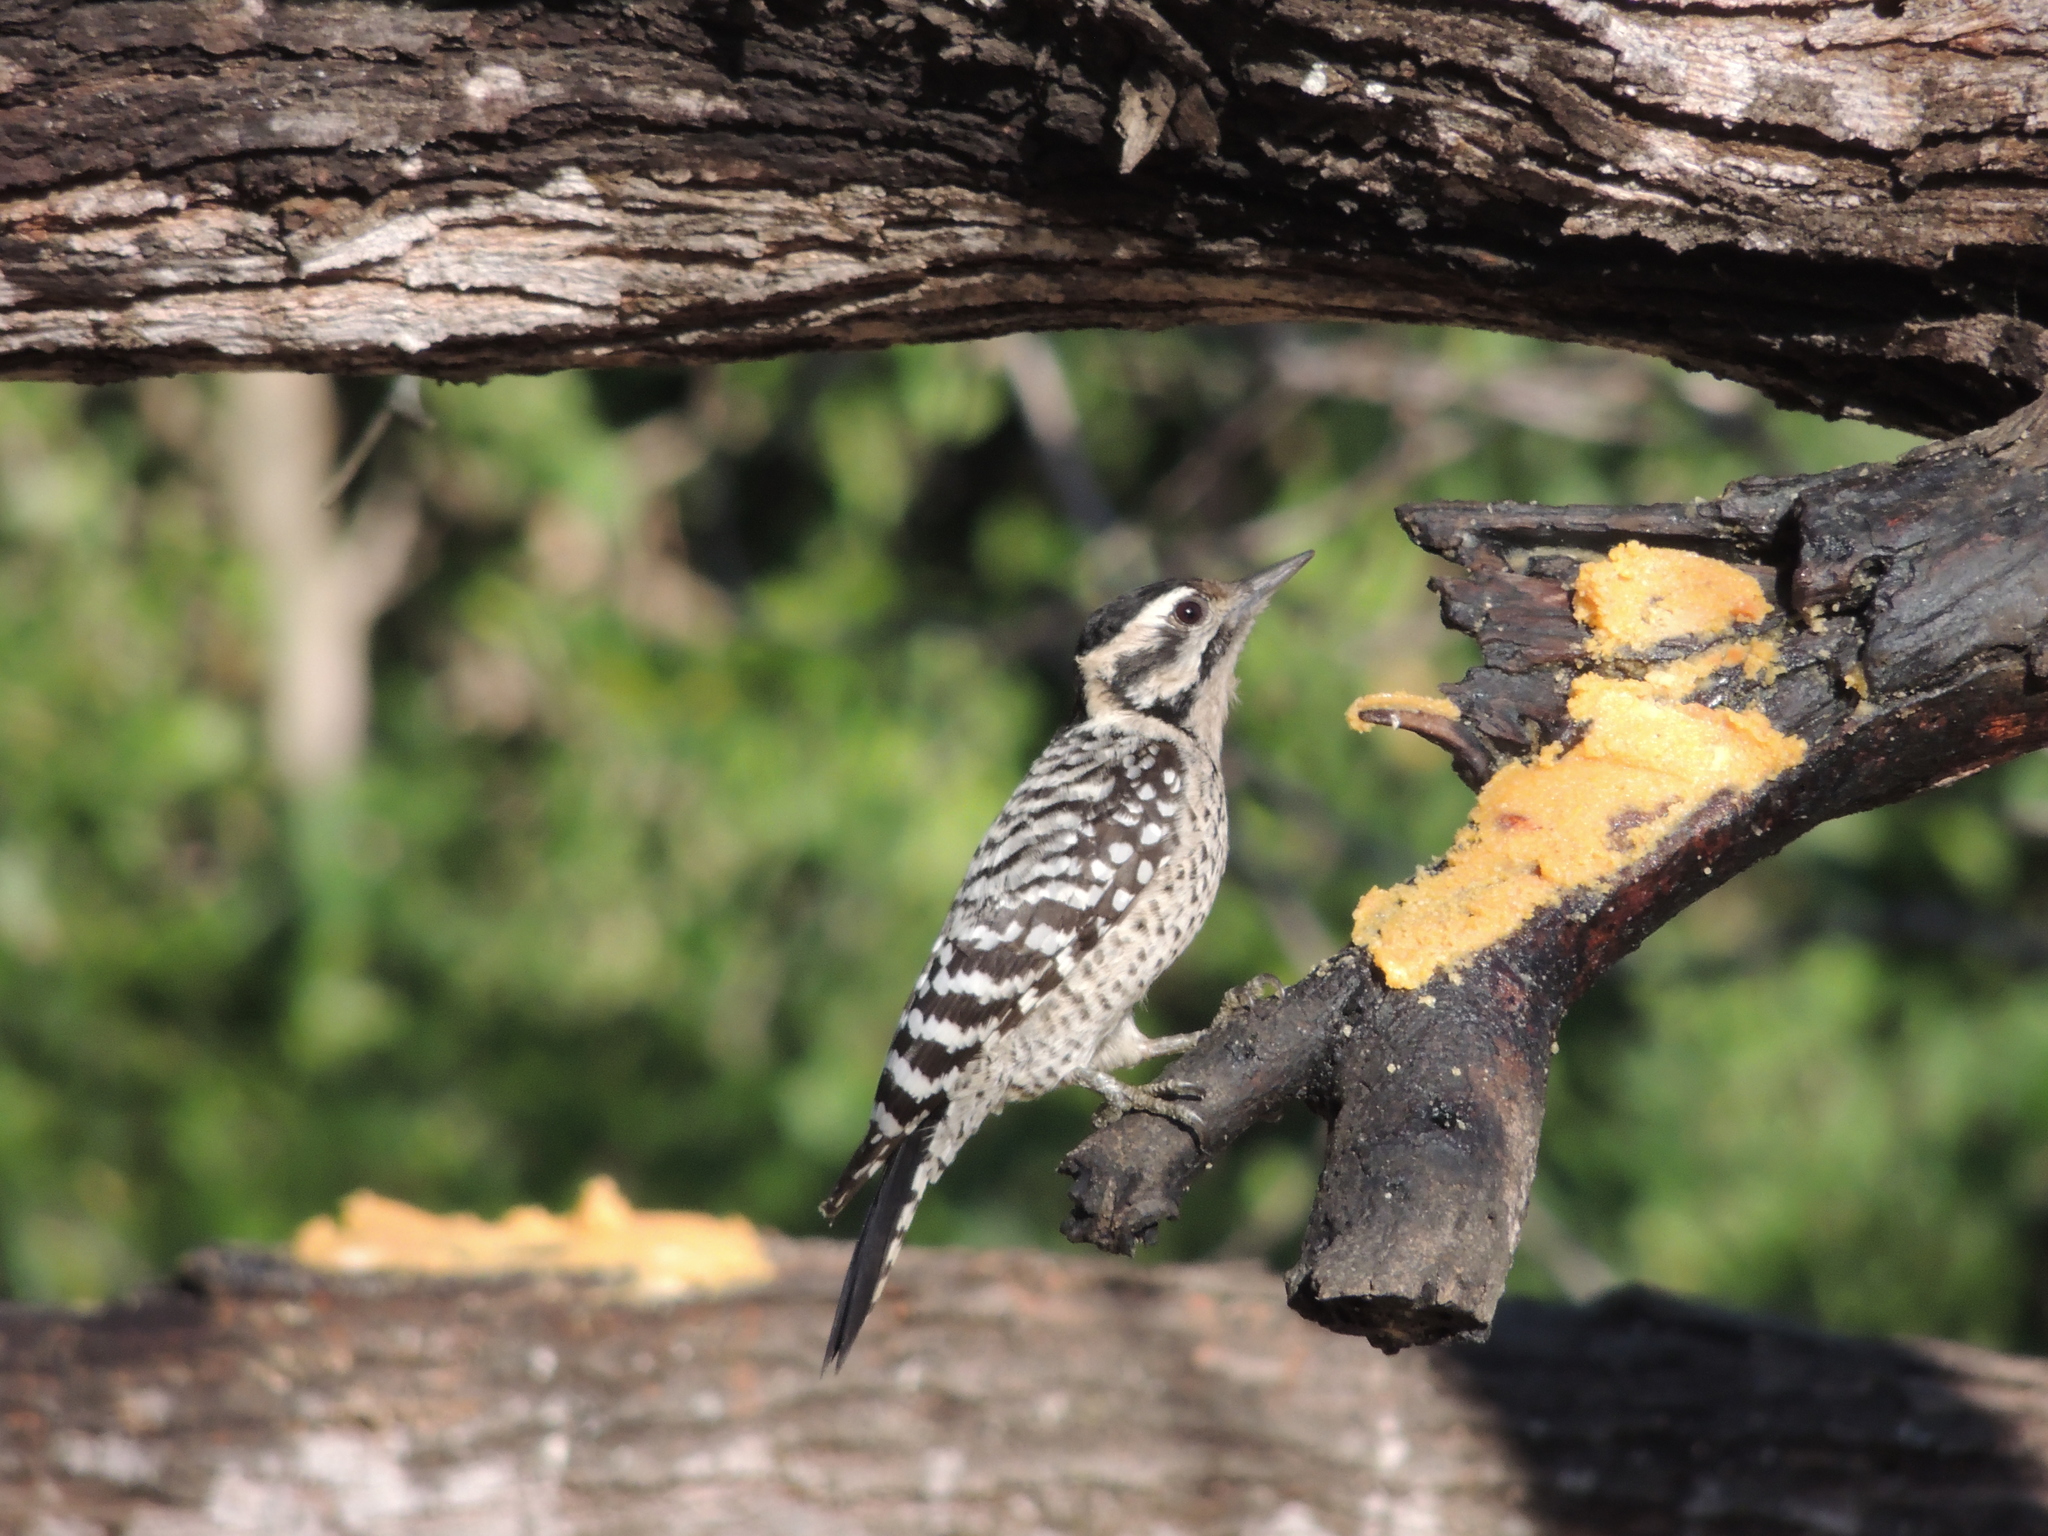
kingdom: Animalia
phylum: Chordata
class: Aves
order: Piciformes
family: Picidae
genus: Dryobates
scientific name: Dryobates scalaris
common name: Ladder-backed woodpecker
